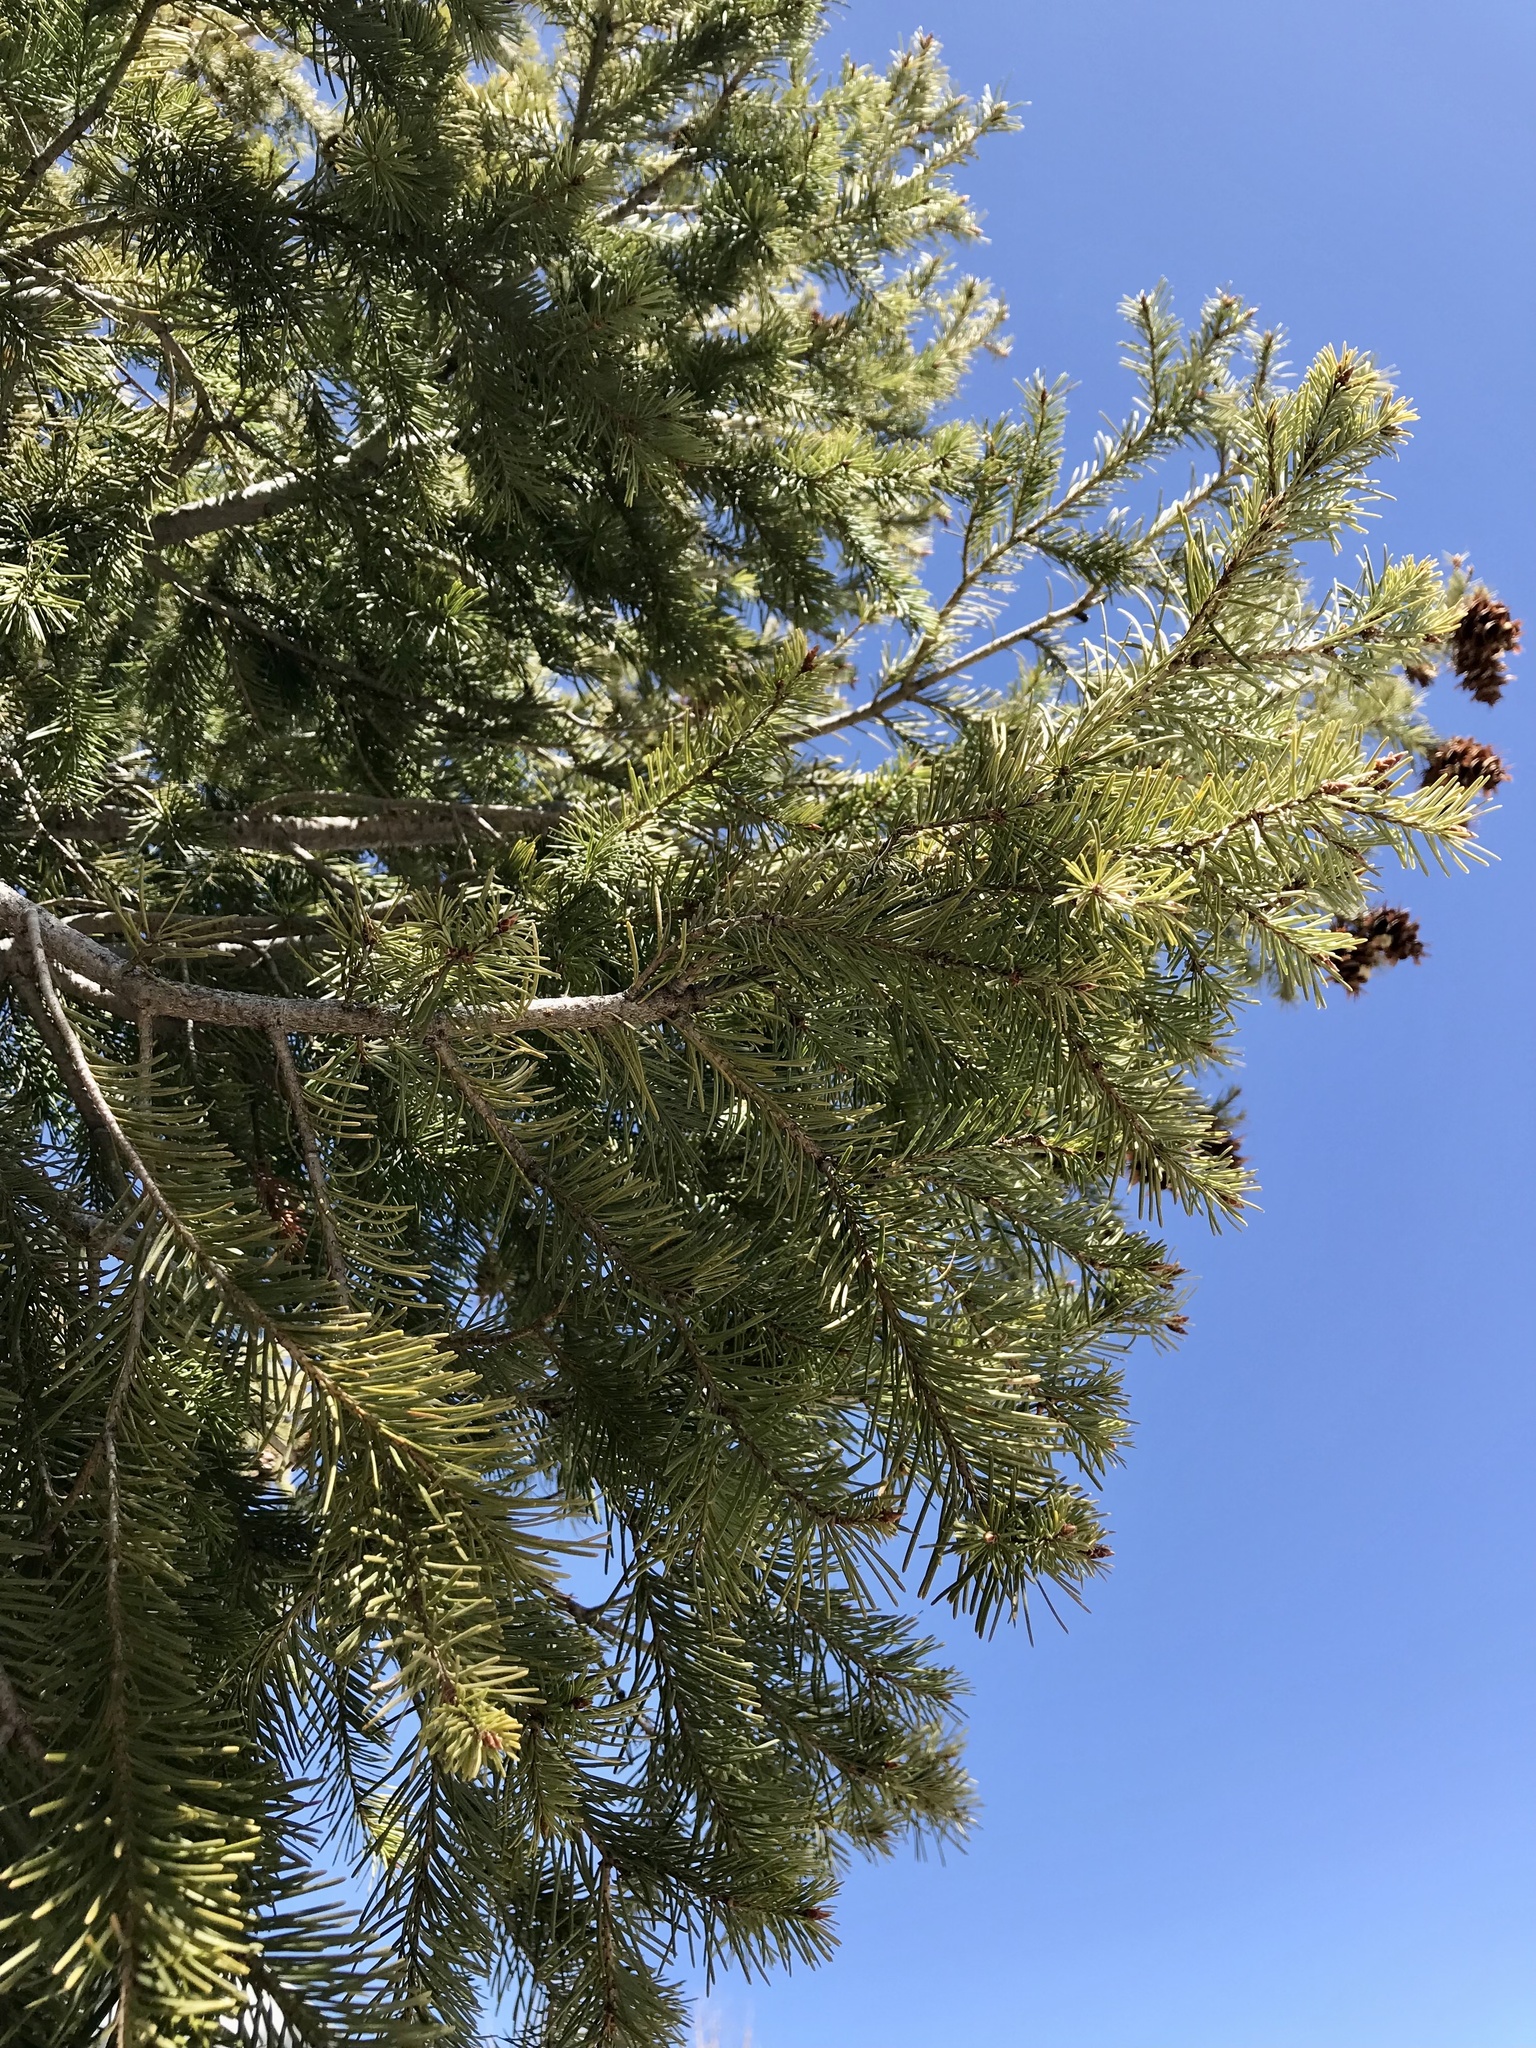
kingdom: Plantae
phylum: Tracheophyta
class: Pinopsida
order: Pinales
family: Pinaceae
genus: Pseudotsuga
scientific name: Pseudotsuga menziesii
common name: Douglas fir
